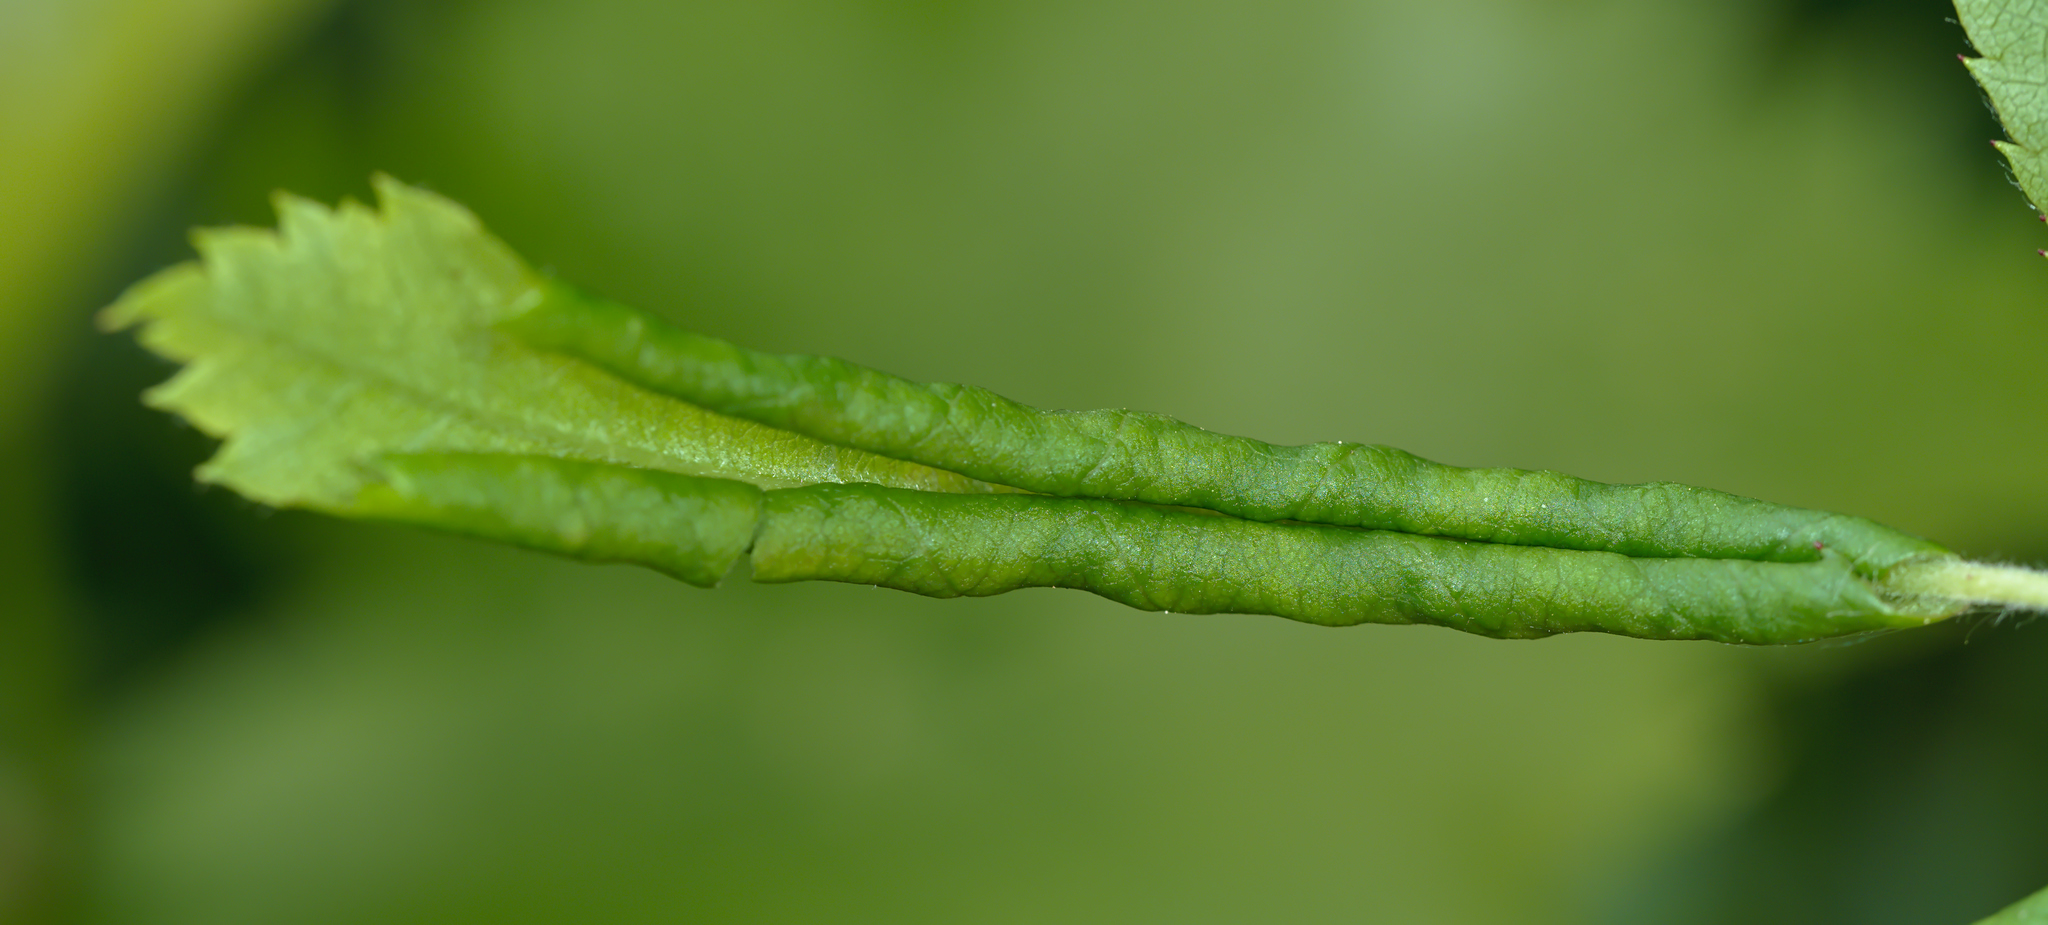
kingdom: Animalia
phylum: Arthropoda
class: Insecta
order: Hymenoptera
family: Tenthredinidae
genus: Blennocampa
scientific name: Blennocampa phyllocolpa
